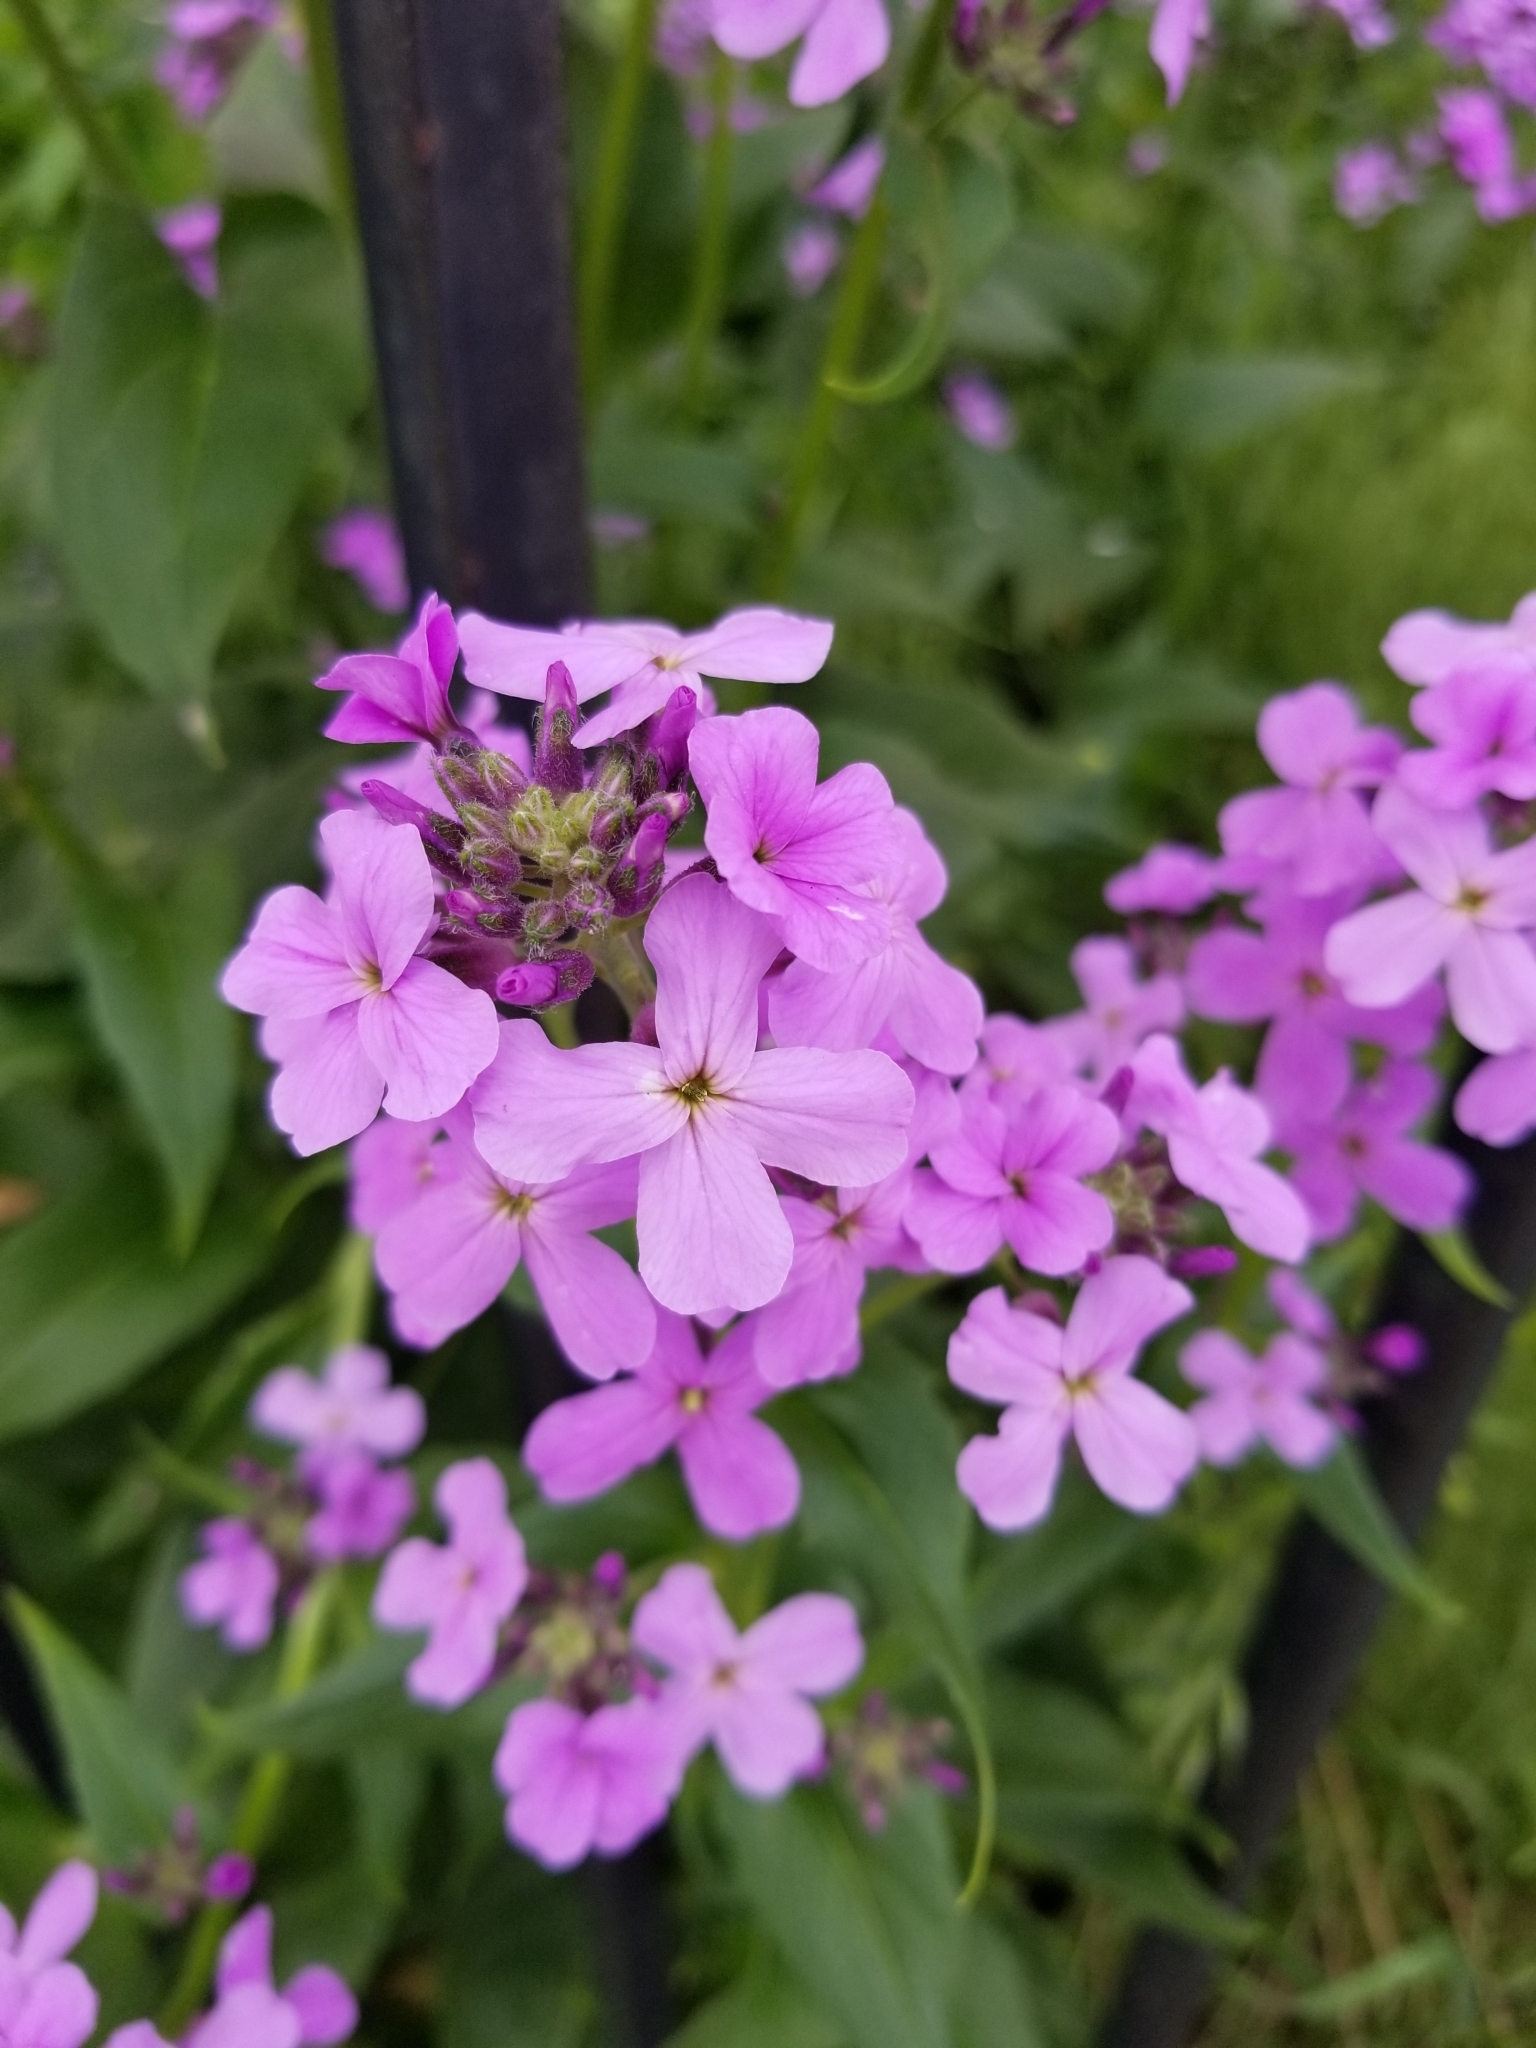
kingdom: Plantae
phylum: Tracheophyta
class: Magnoliopsida
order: Brassicales
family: Brassicaceae
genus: Hesperis
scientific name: Hesperis matronalis
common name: Dame's-violet
